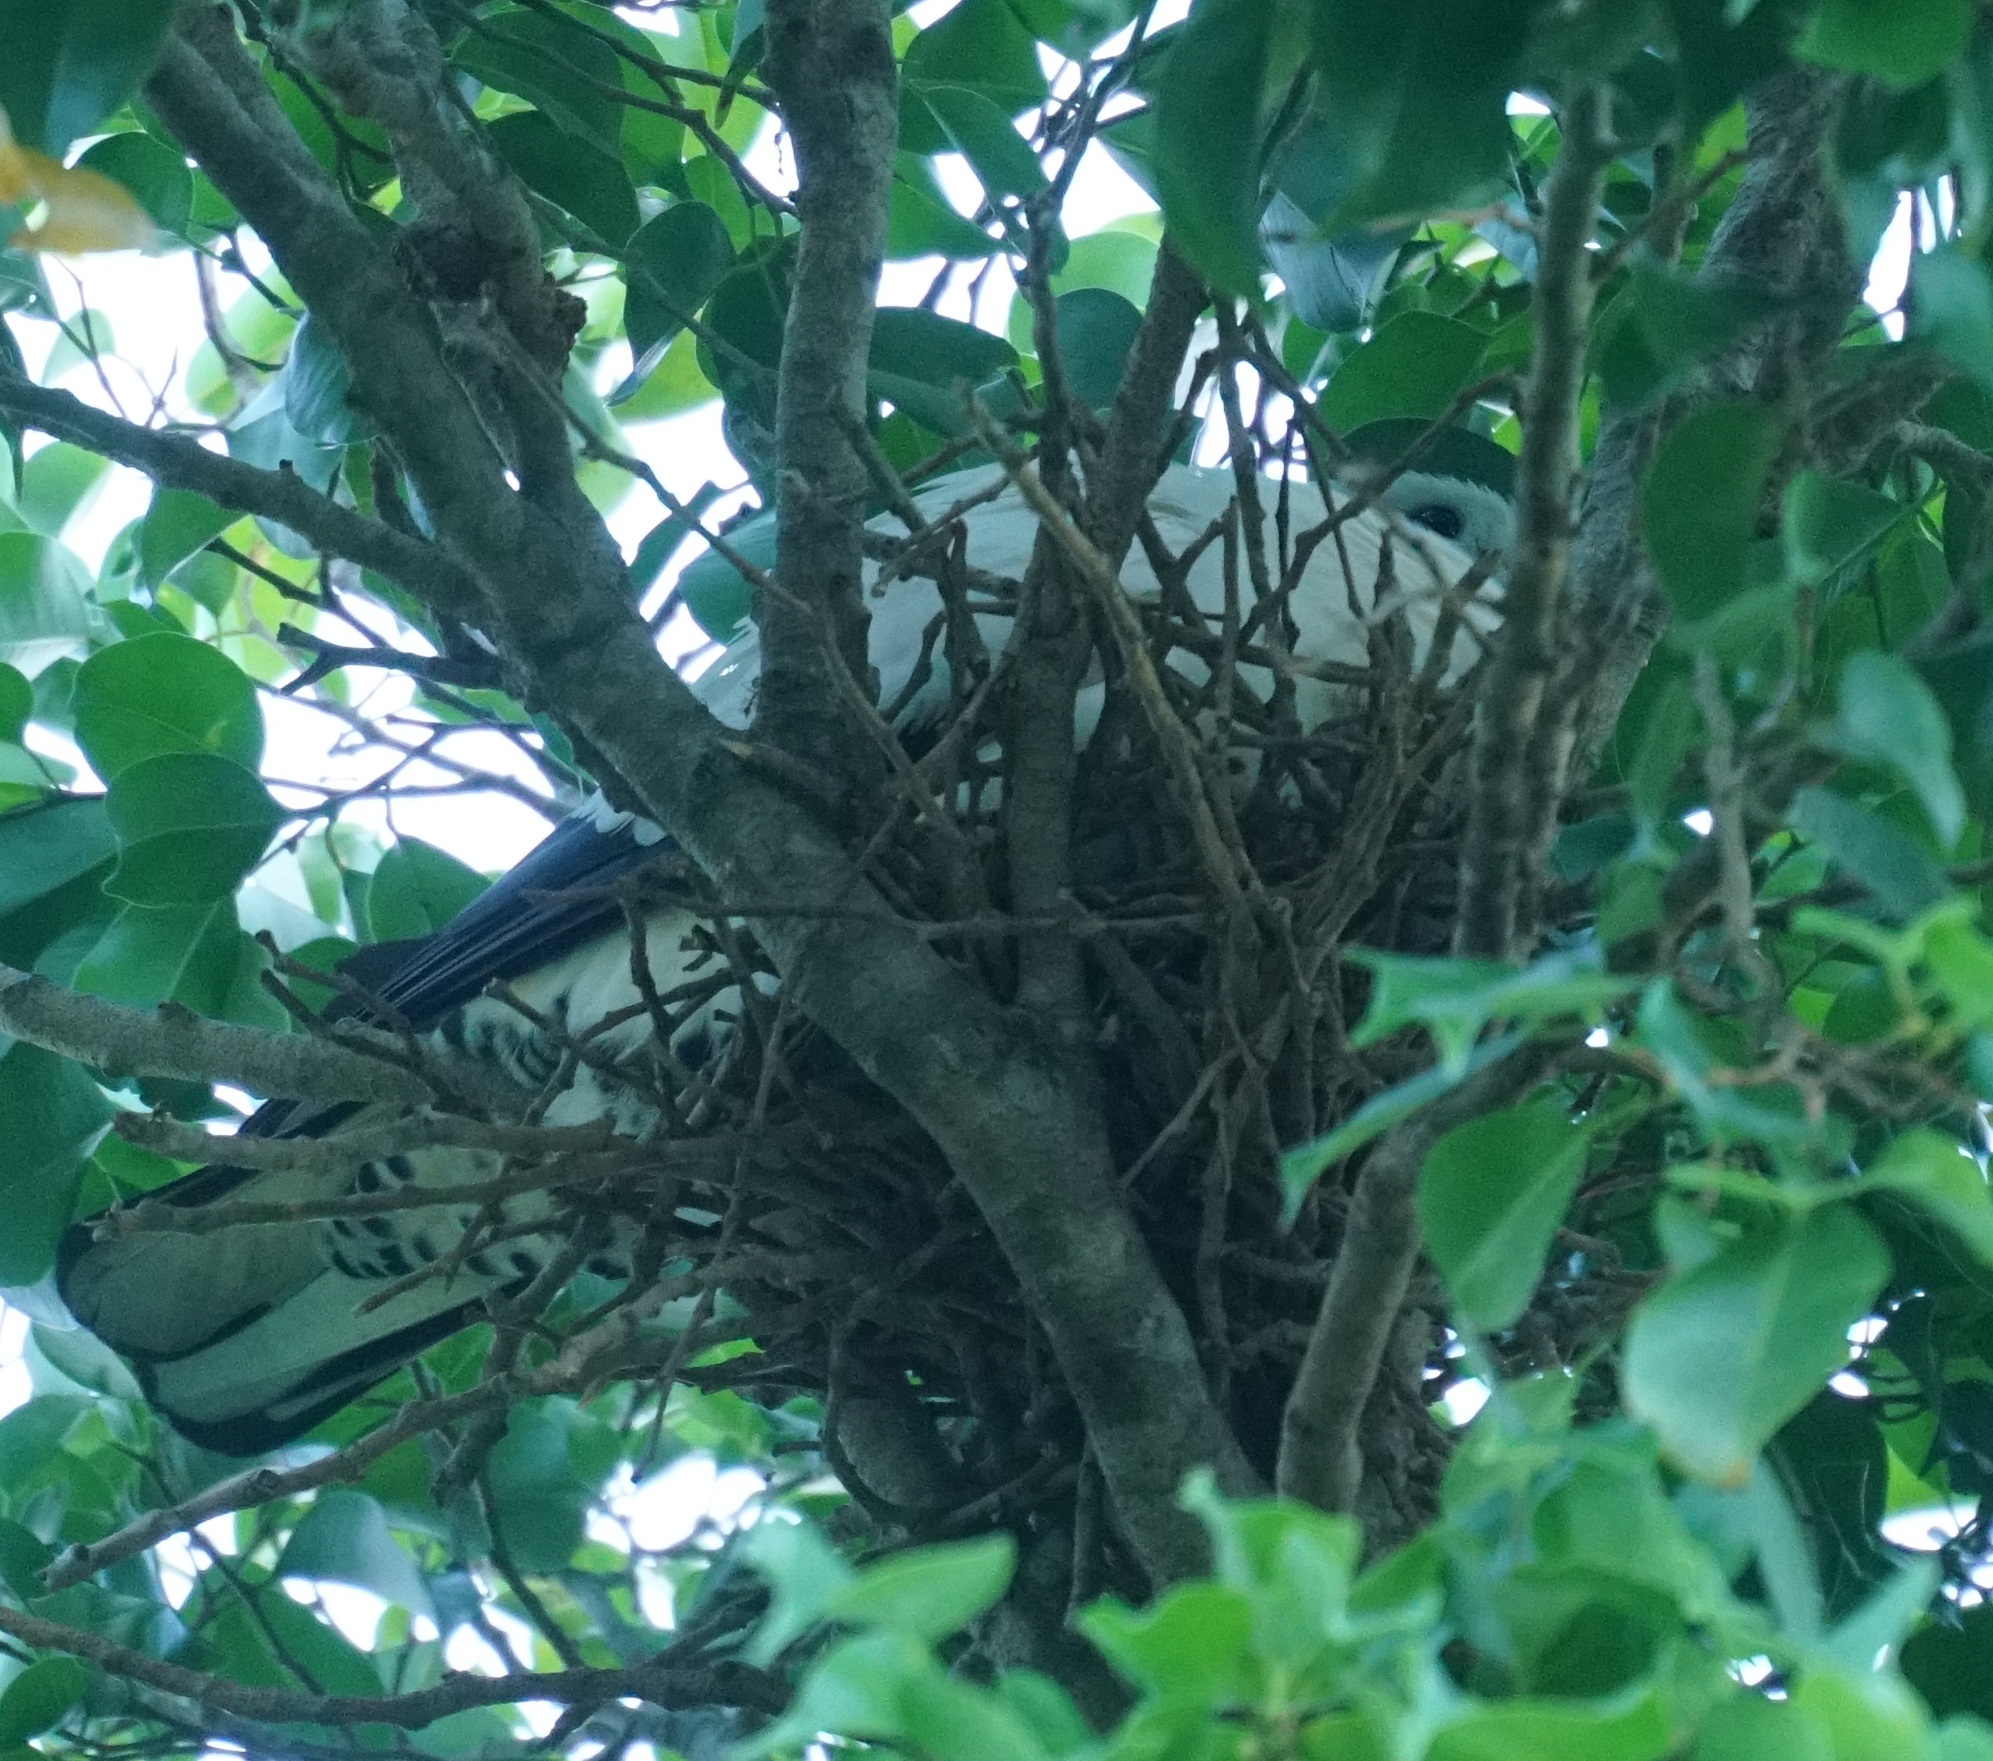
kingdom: Animalia
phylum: Chordata
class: Aves
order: Columbiformes
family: Columbidae
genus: Ducula
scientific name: Ducula spilorrhoa
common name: Torresian imperial pigeon
